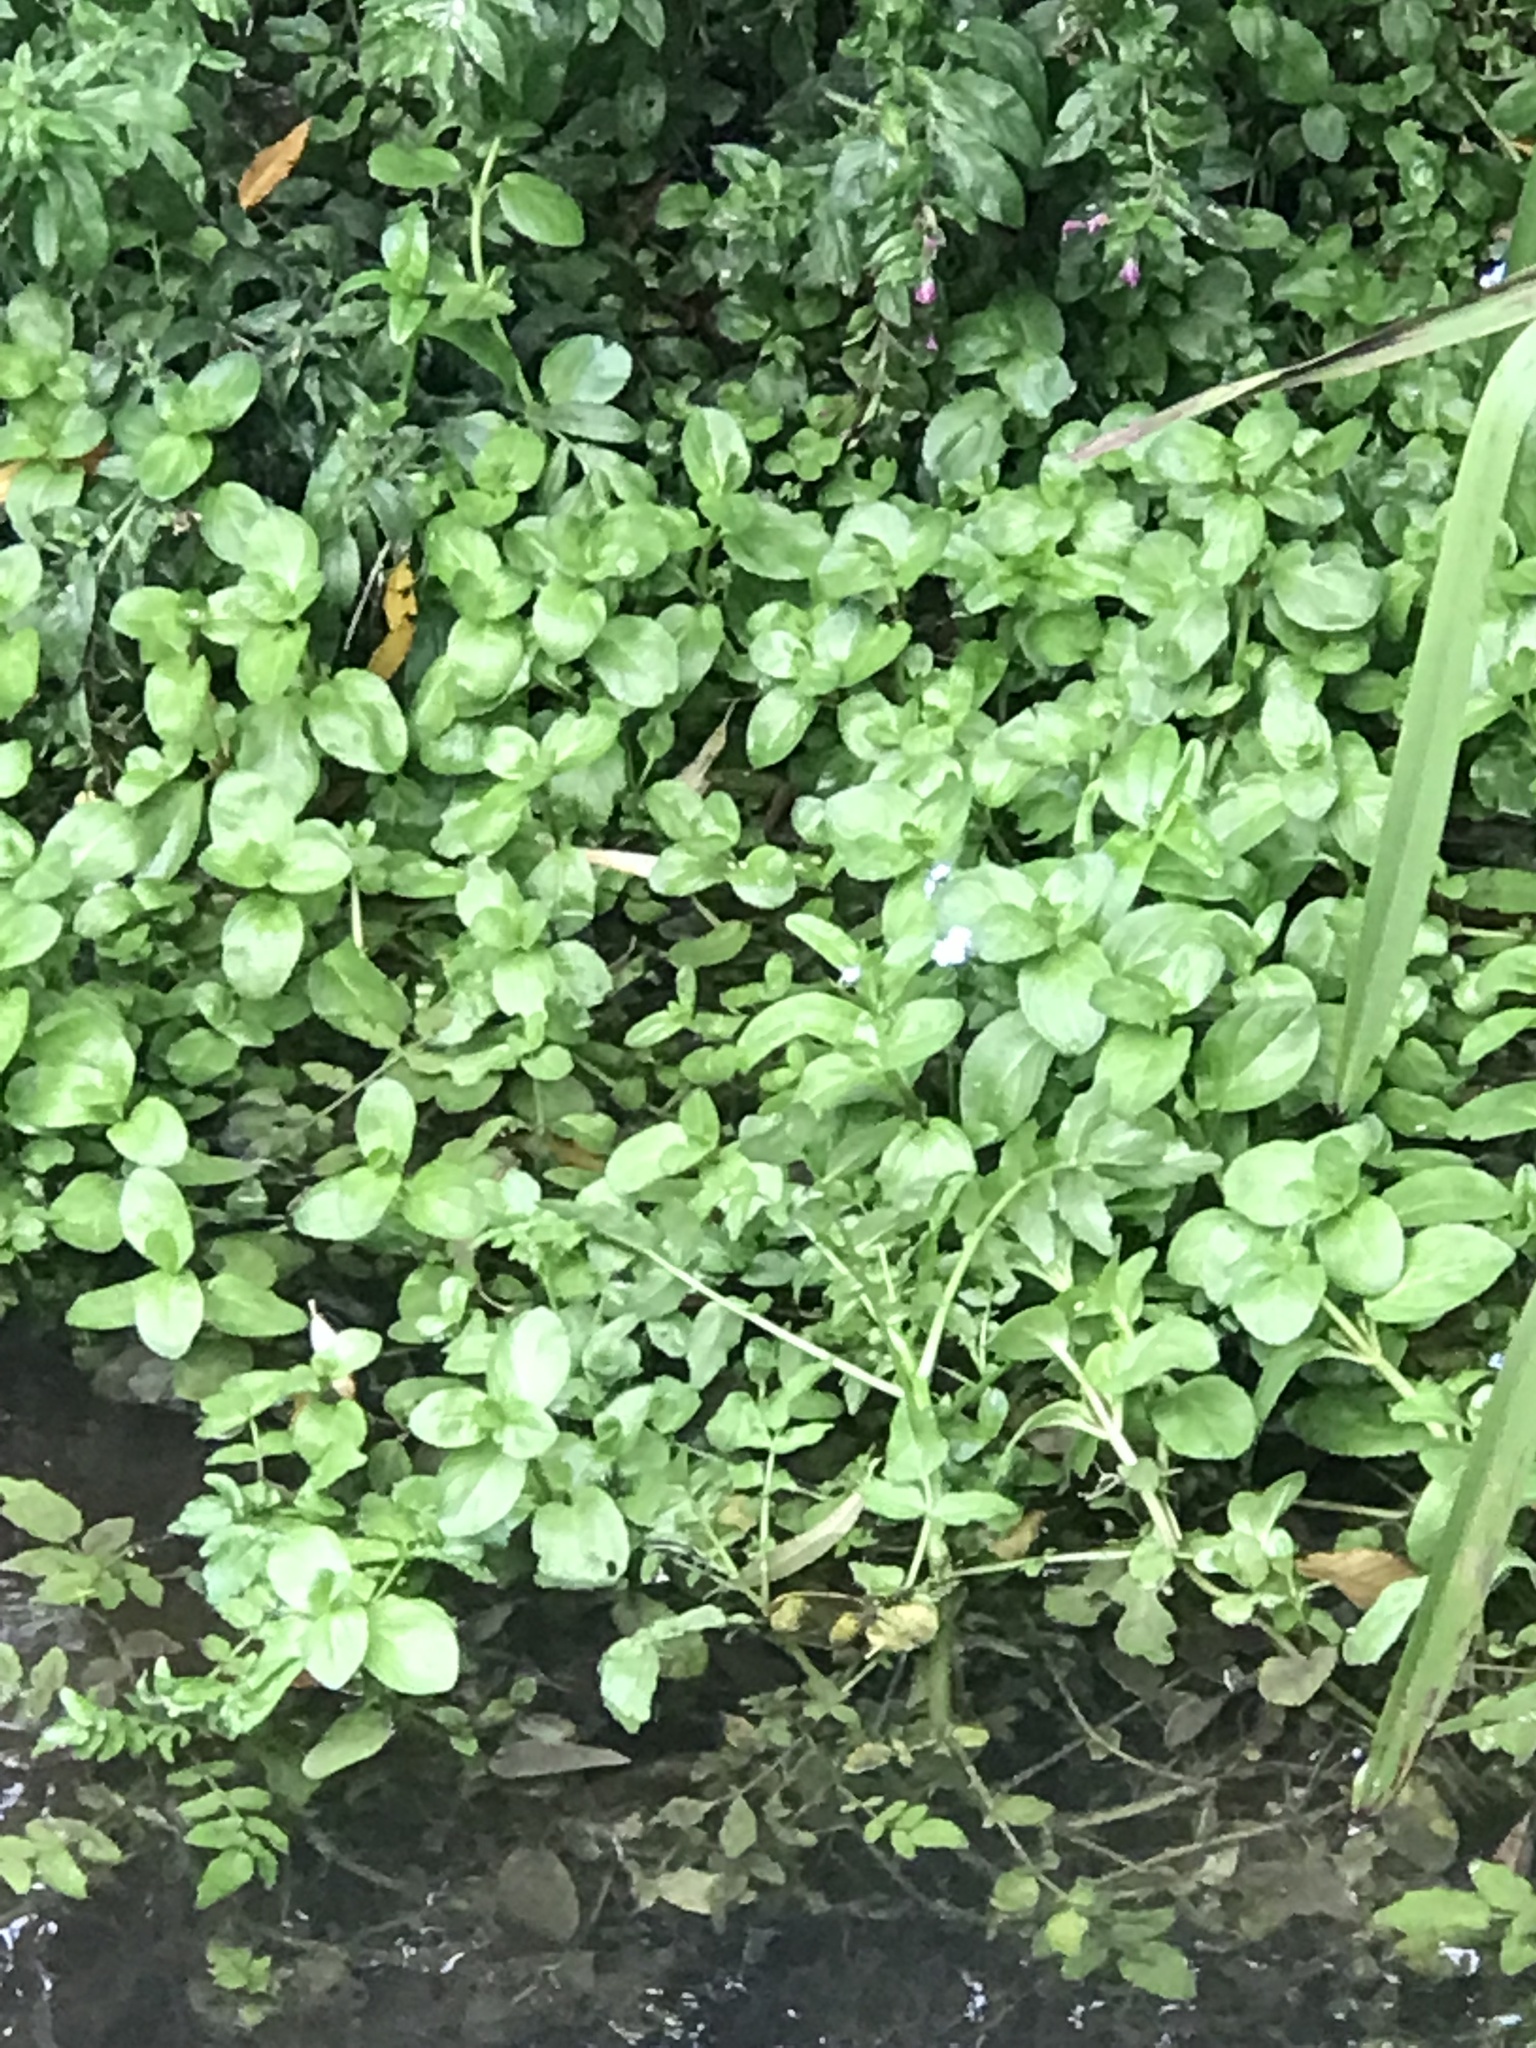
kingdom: Plantae
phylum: Tracheophyta
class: Magnoliopsida
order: Lamiales
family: Plantaginaceae
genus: Veronica
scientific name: Veronica beccabunga
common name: Brooklime
